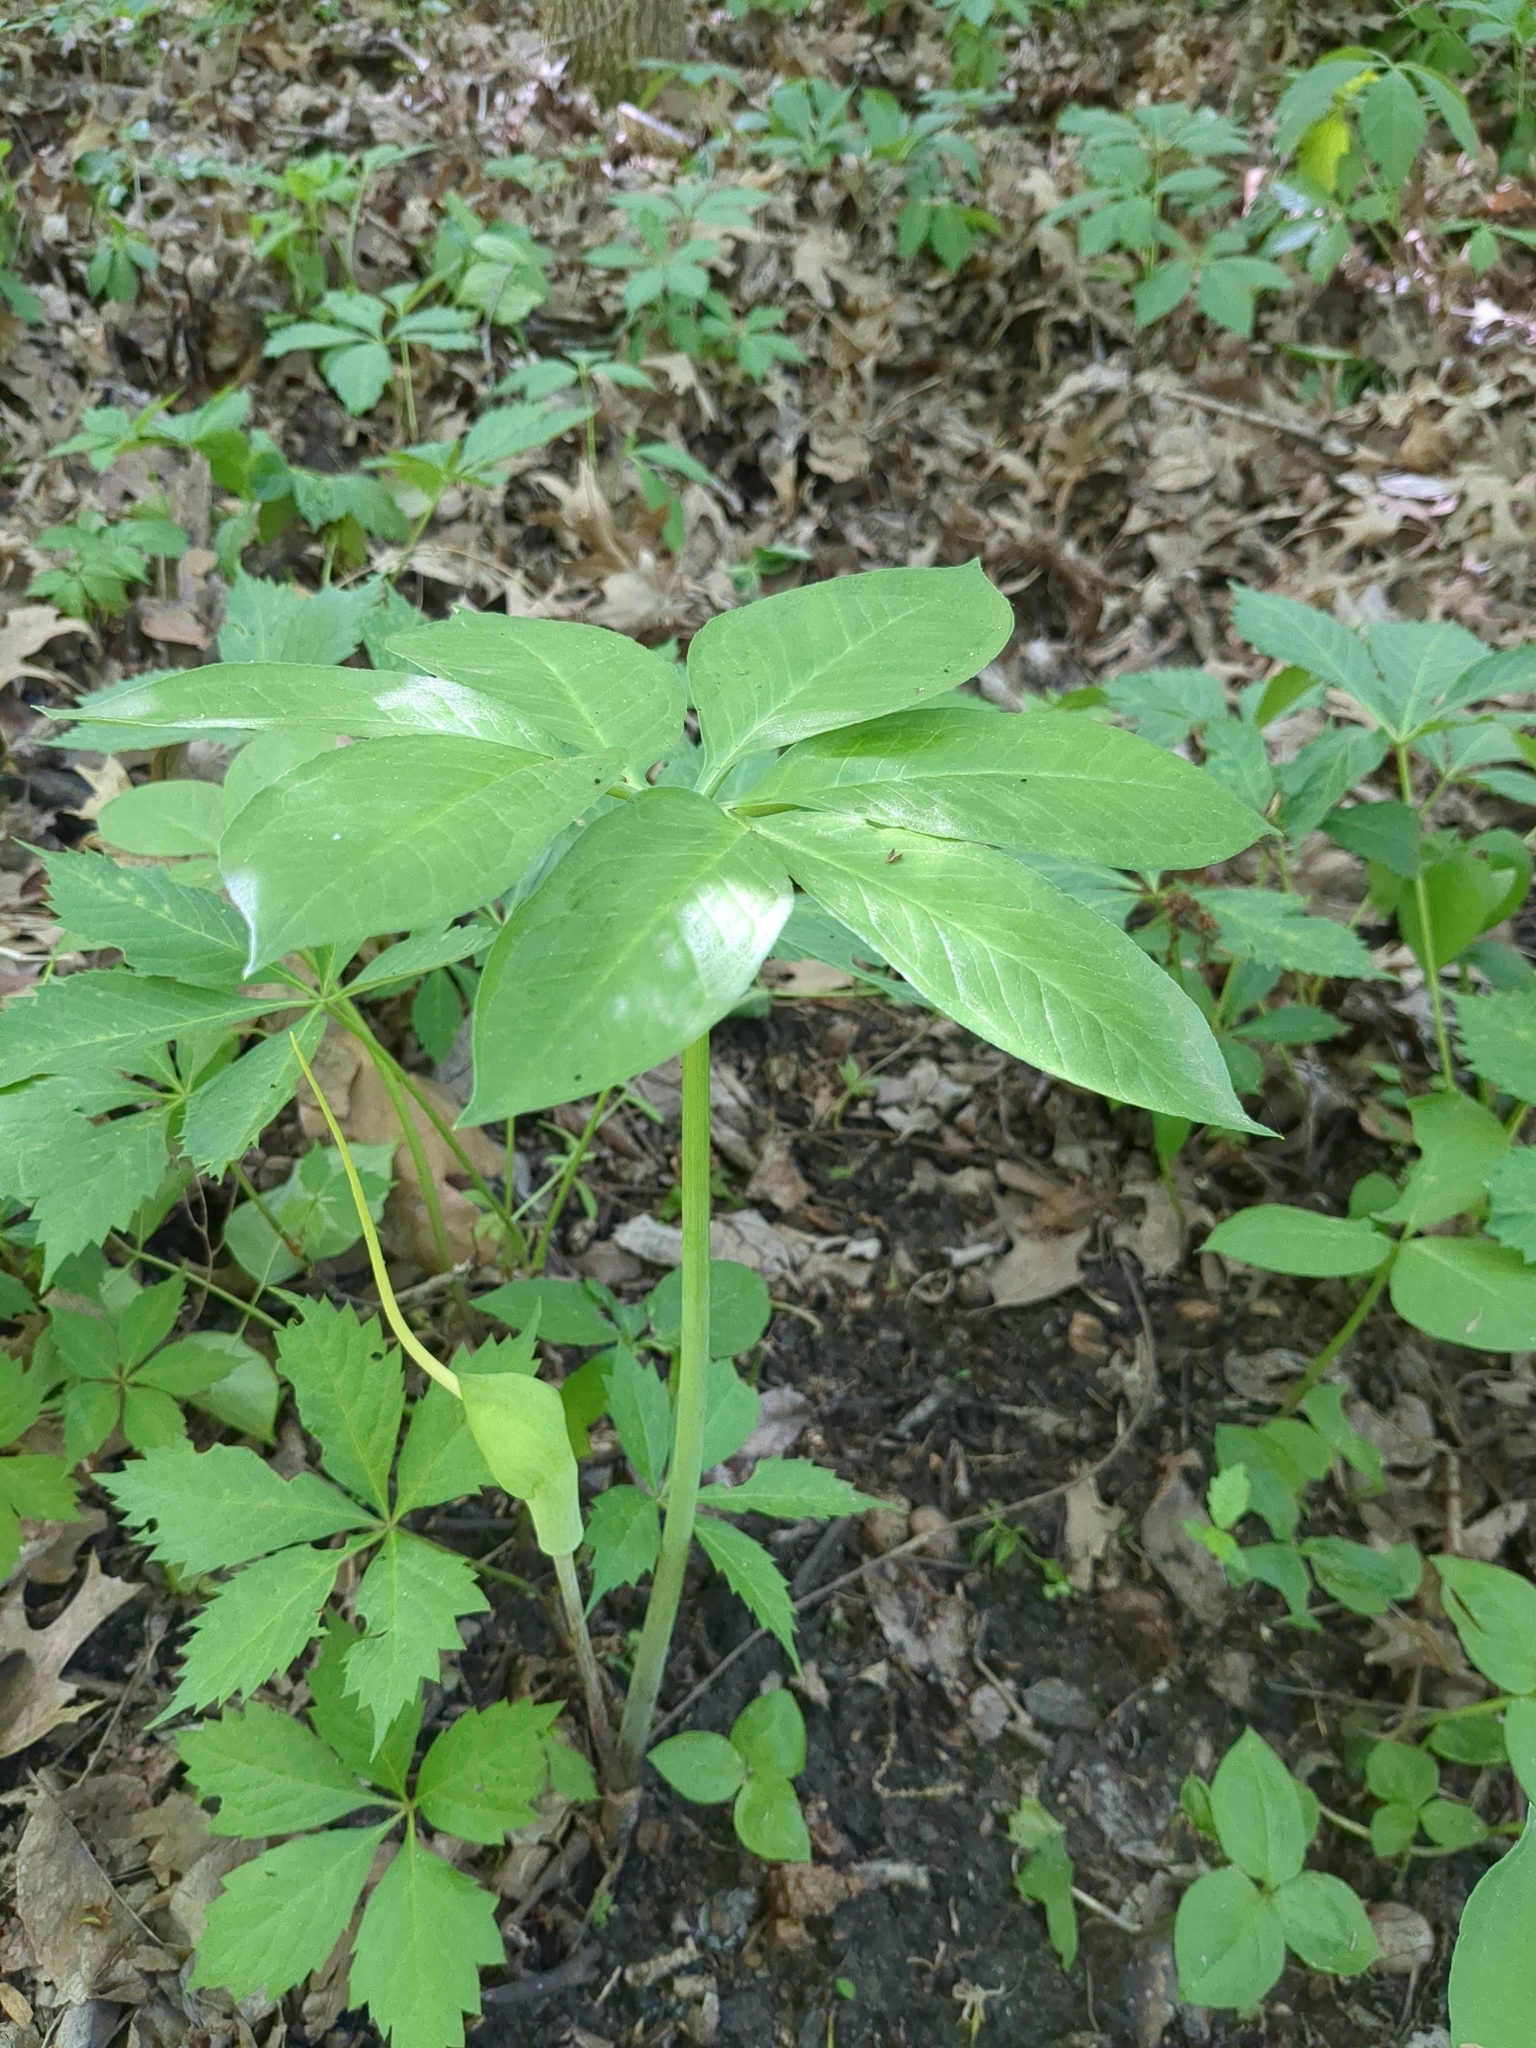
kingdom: Plantae
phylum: Tracheophyta
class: Liliopsida
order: Alismatales
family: Araceae
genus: Arisaema
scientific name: Arisaema dracontium
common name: Dragon-arum
